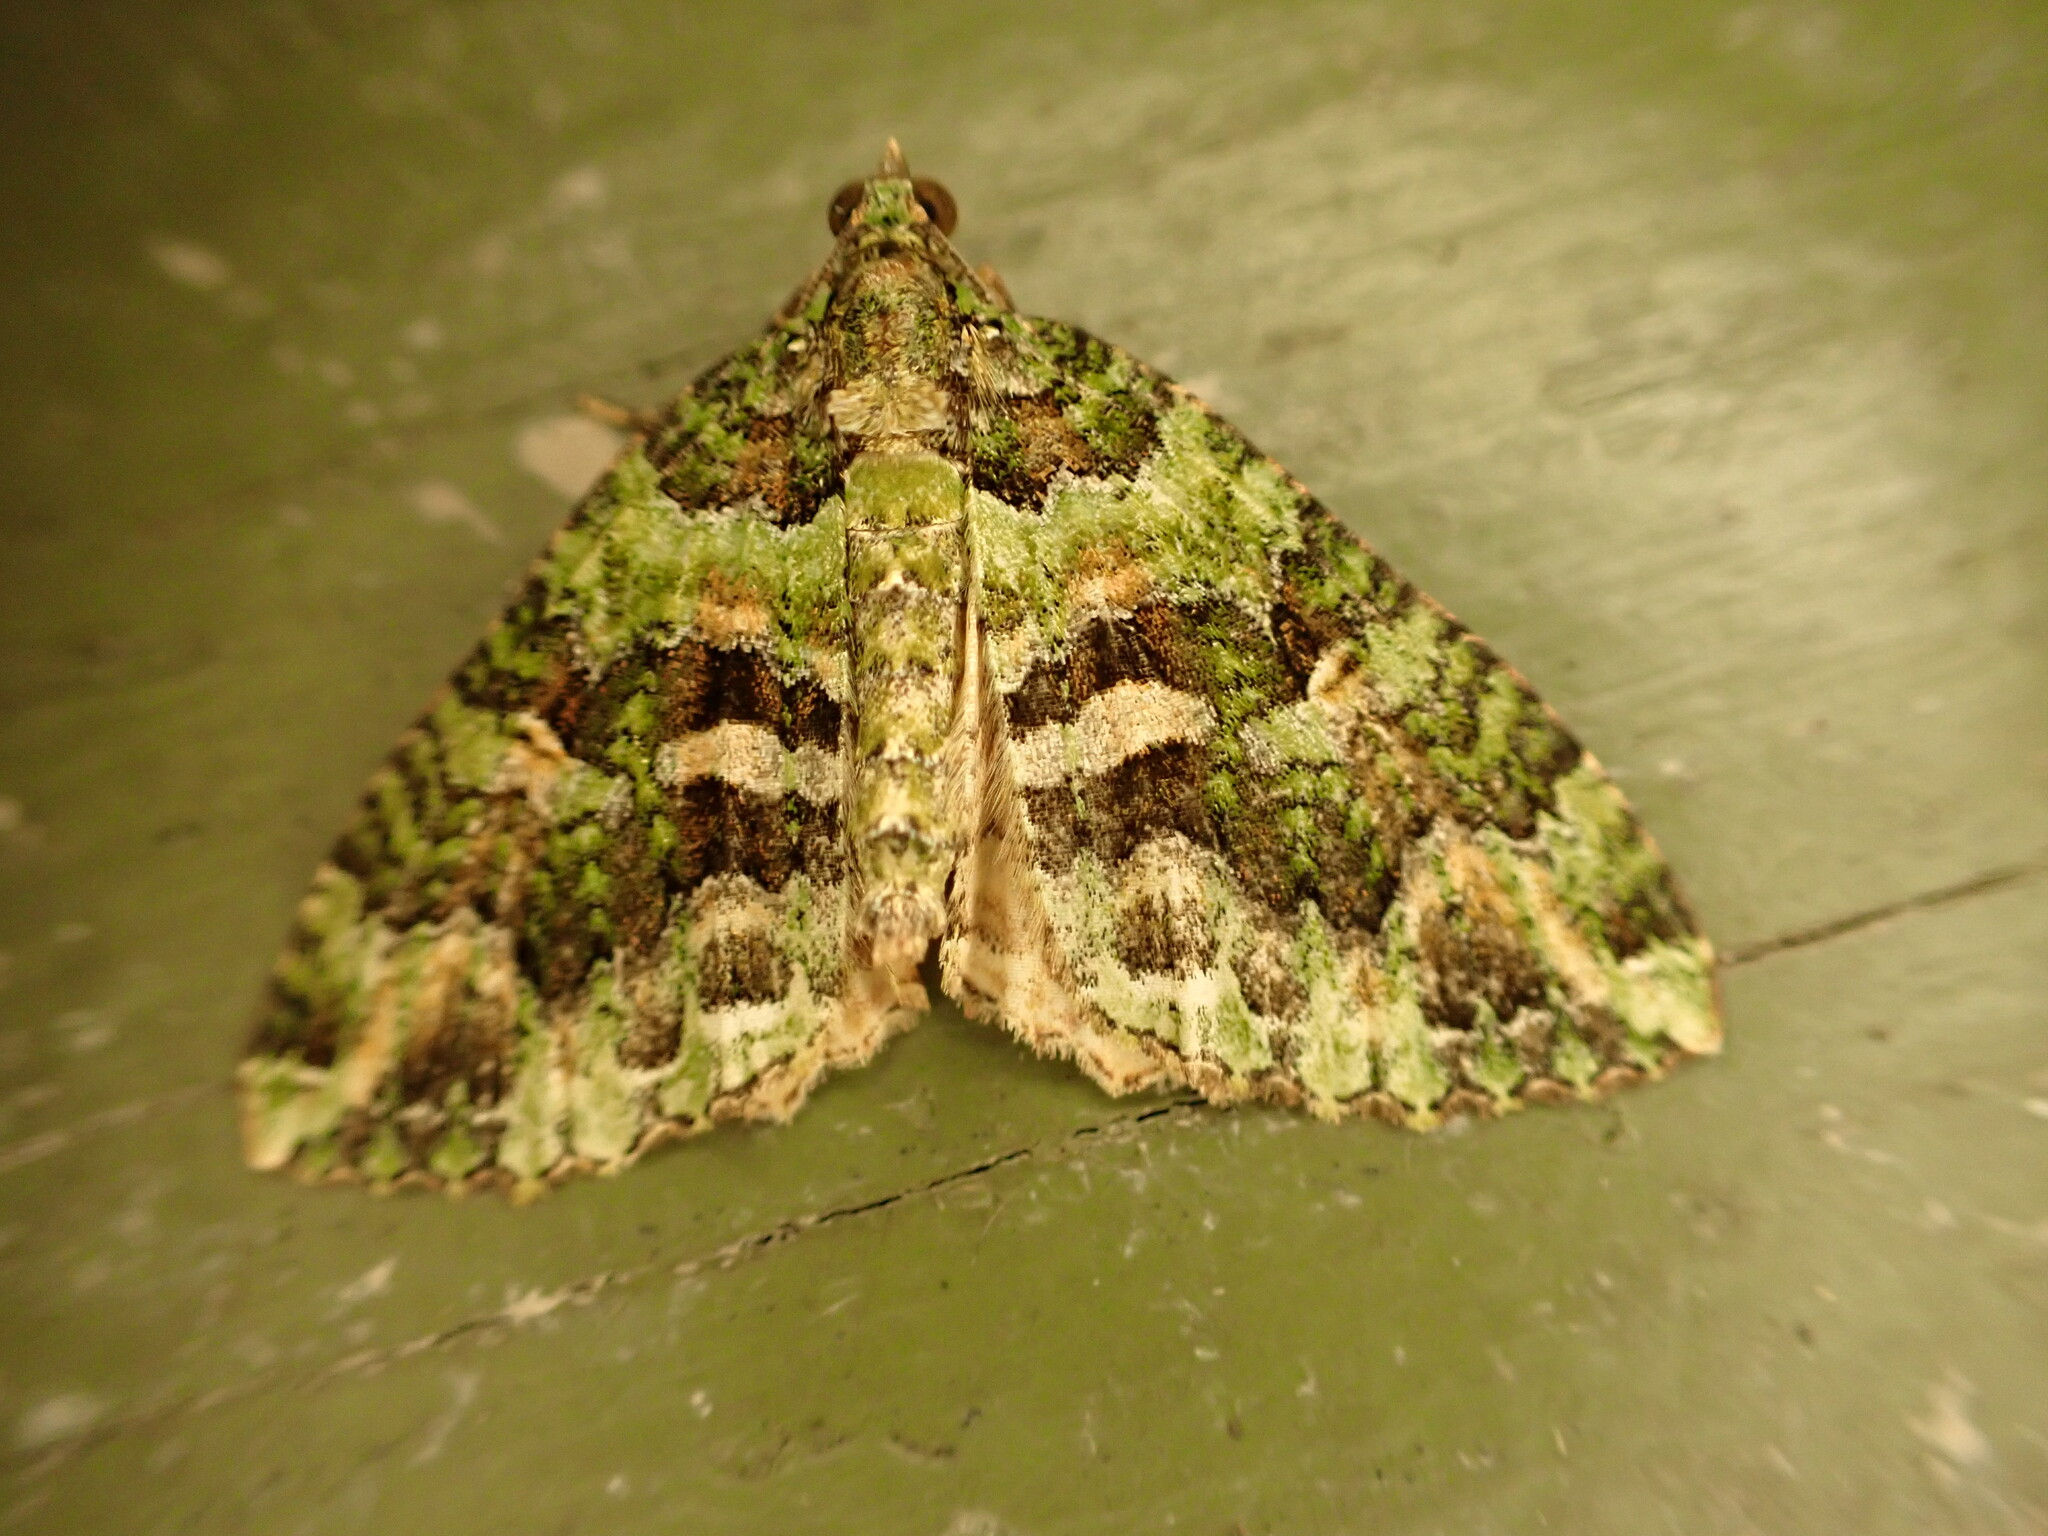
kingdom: Animalia
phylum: Arthropoda
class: Insecta
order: Lepidoptera
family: Geometridae
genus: Austrocidaria
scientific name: Austrocidaria similata
